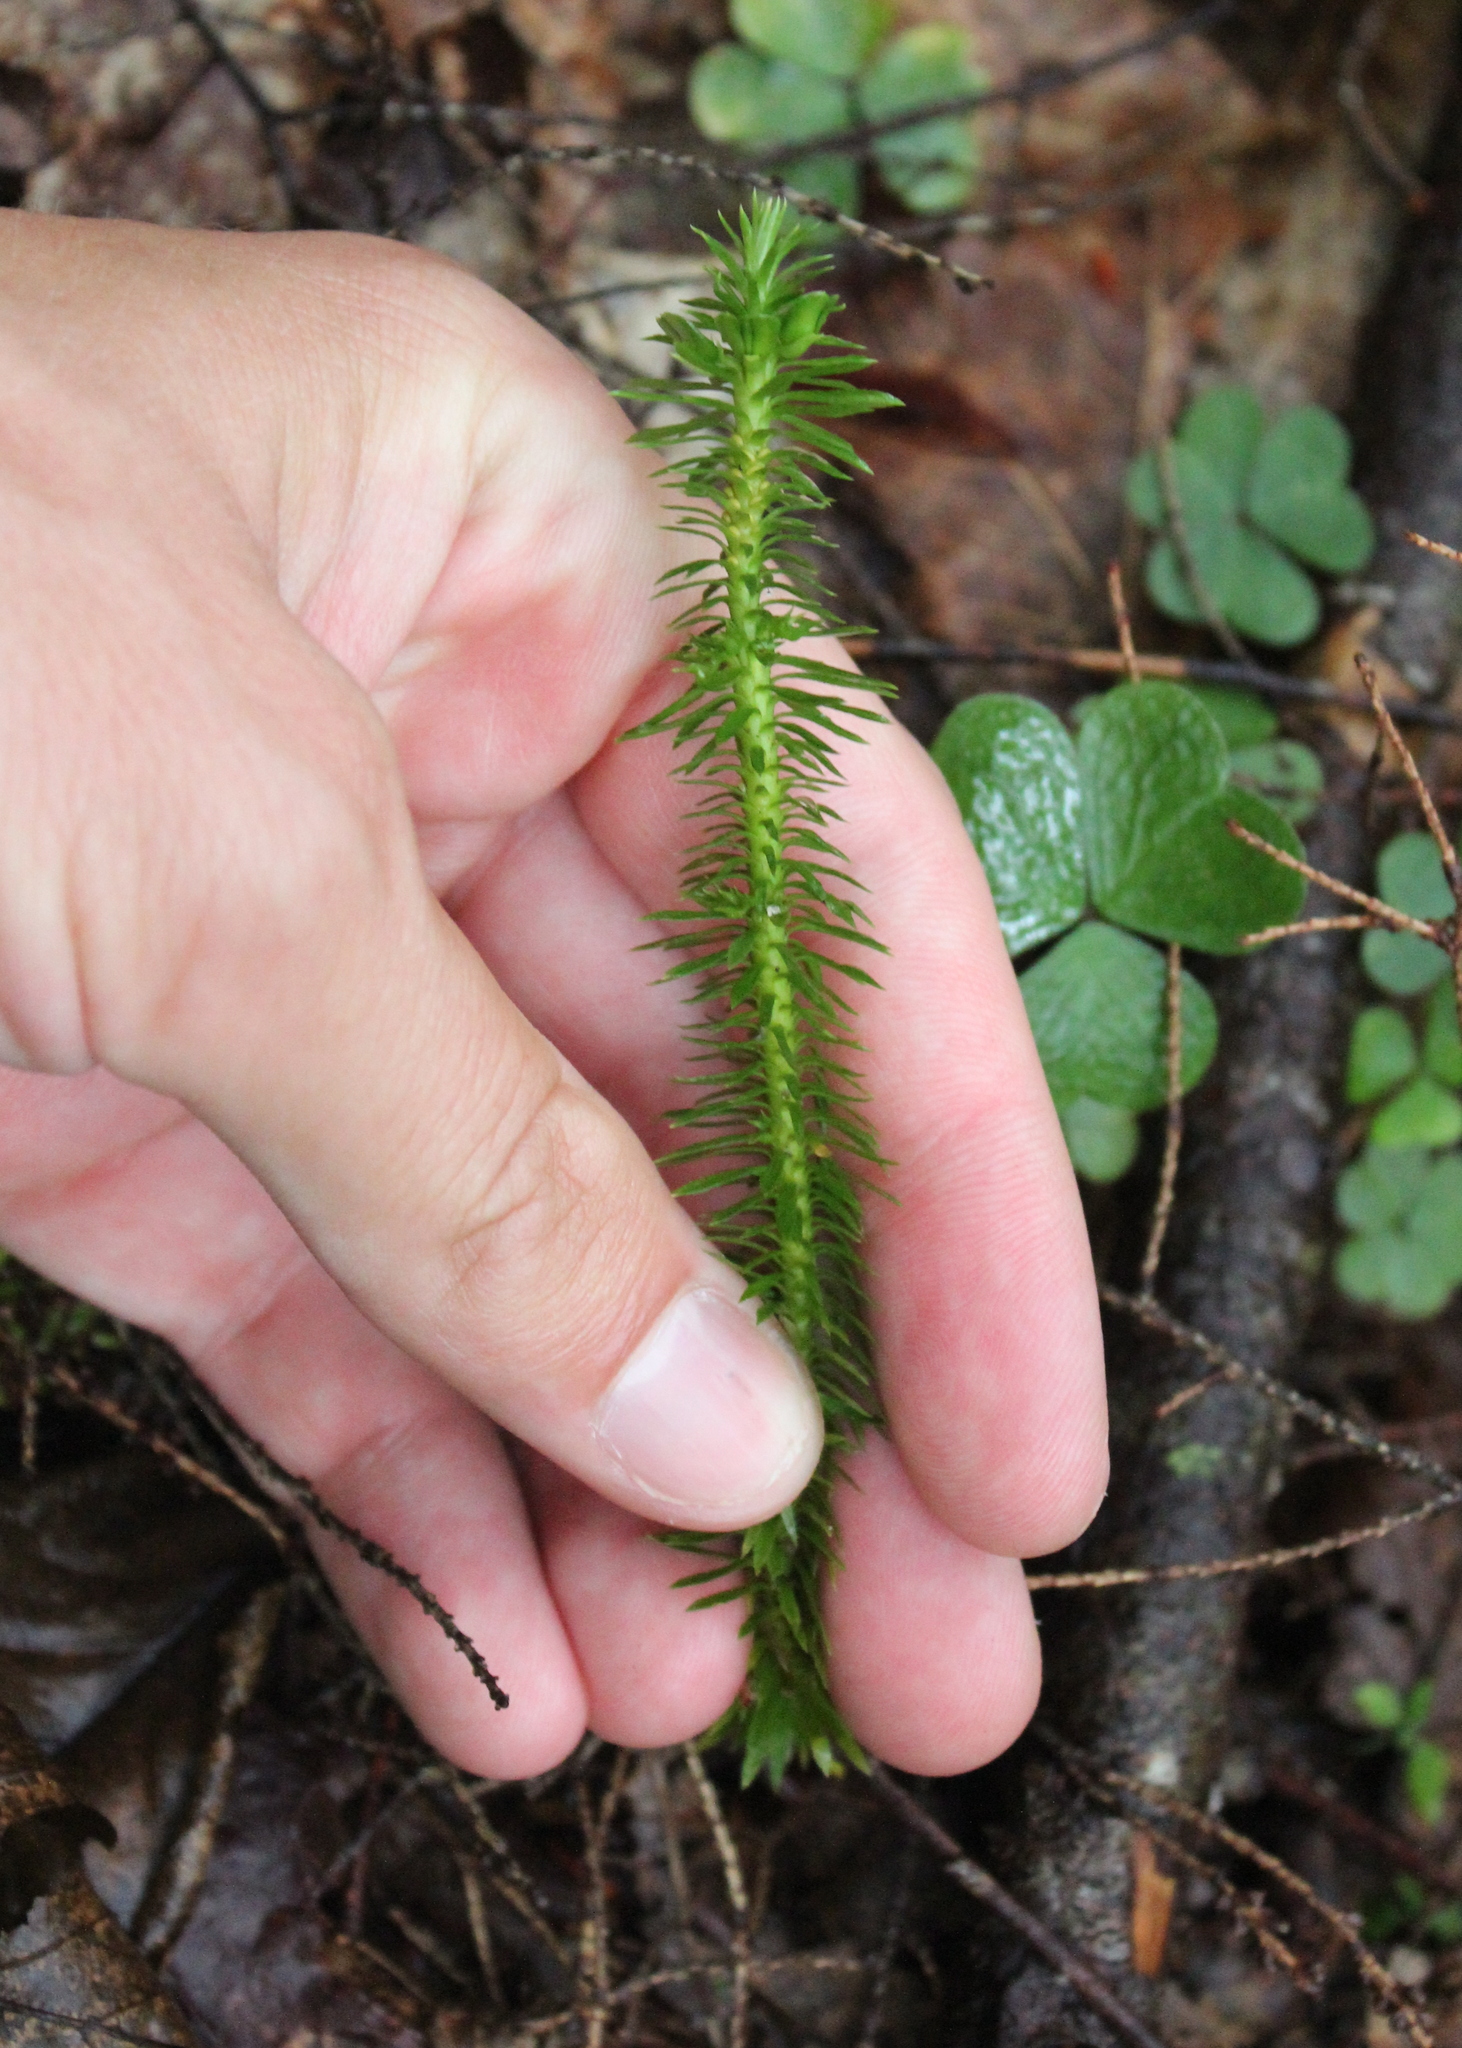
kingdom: Plantae
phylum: Tracheophyta
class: Lycopodiopsida
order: Lycopodiales
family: Lycopodiaceae
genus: Huperzia
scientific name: Huperzia lucidula
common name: Shining clubmoss
